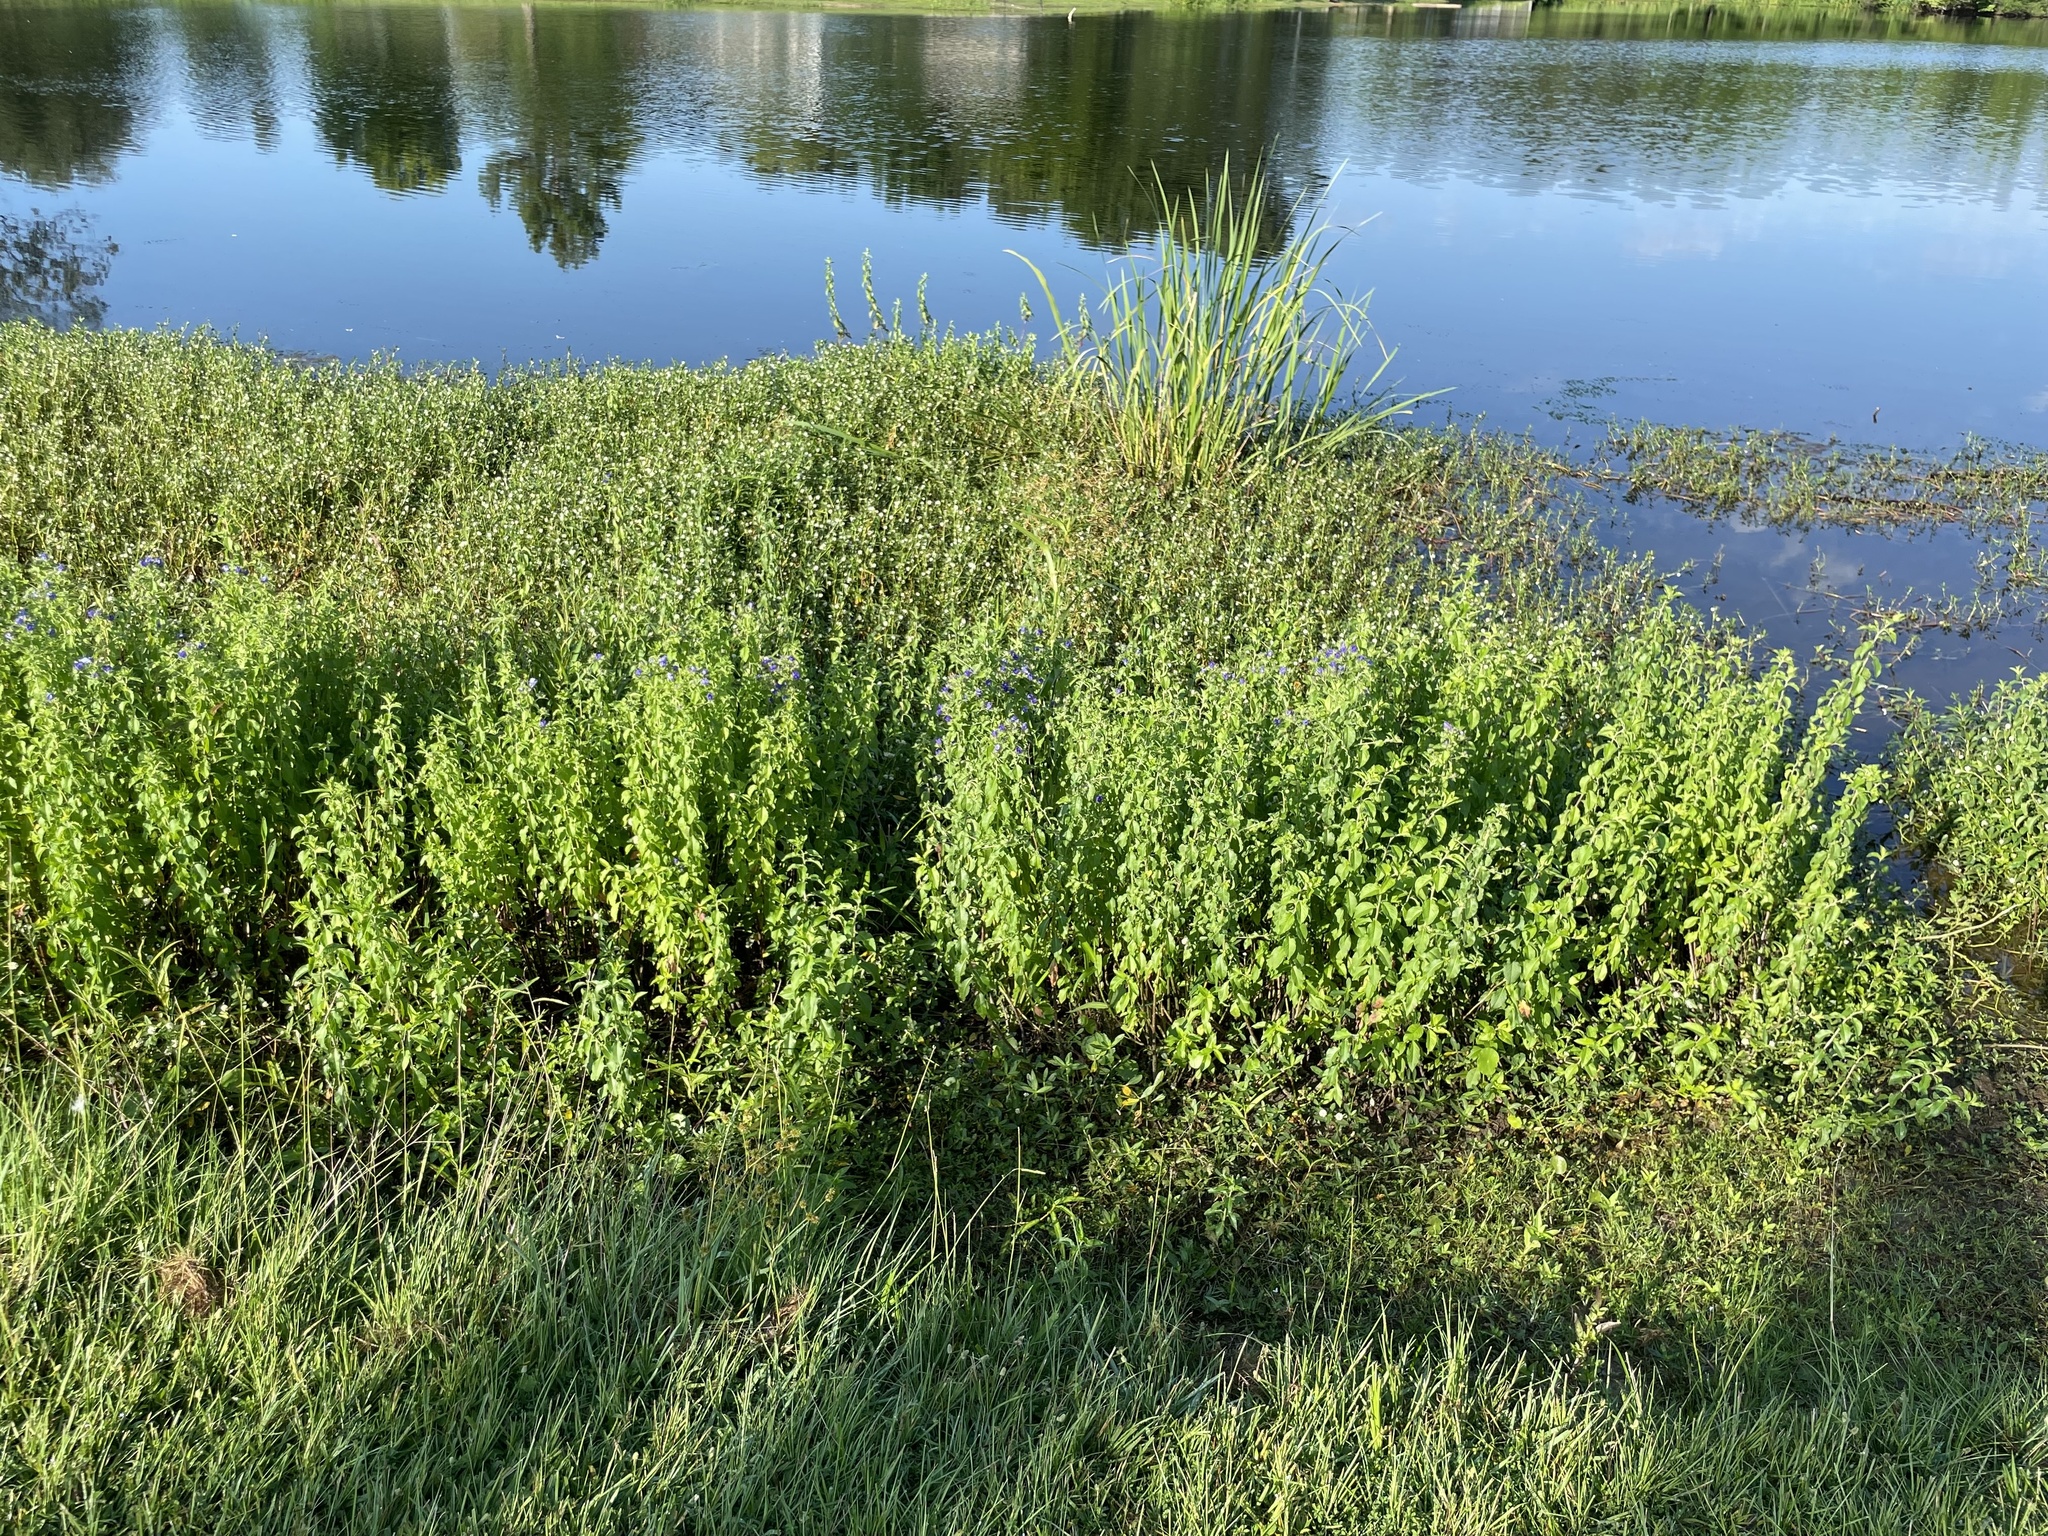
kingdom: Plantae
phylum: Tracheophyta
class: Magnoliopsida
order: Solanales
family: Hydroleaceae
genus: Hydrolea
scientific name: Hydrolea ovata
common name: Ovate false fiddleleaf
